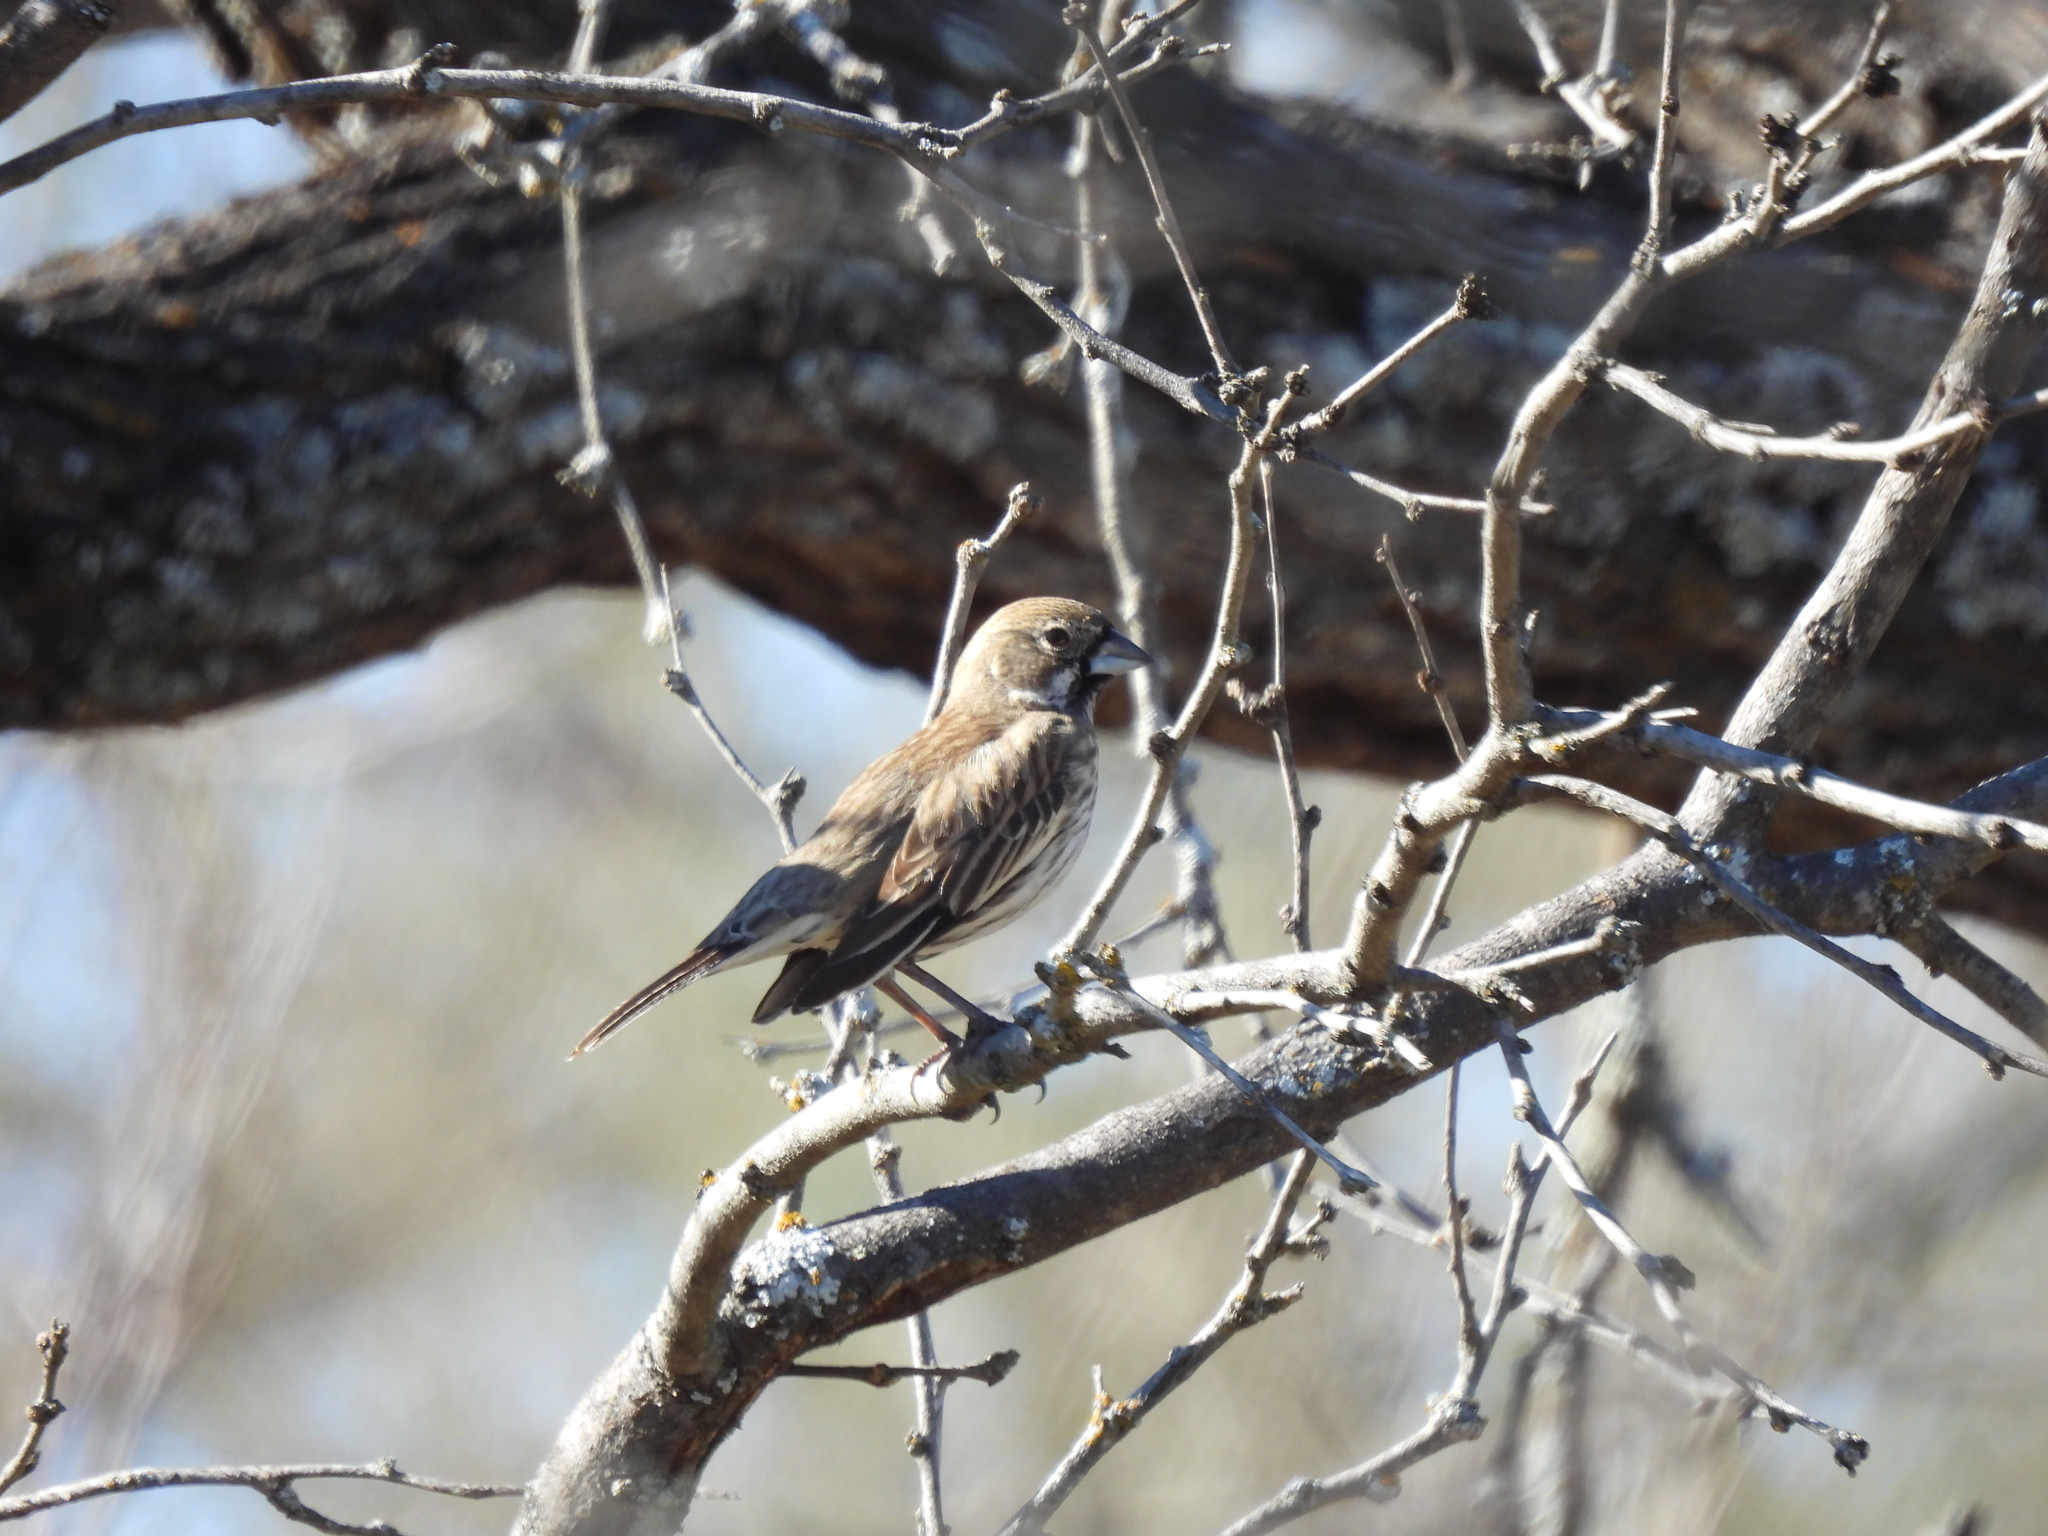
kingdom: Animalia
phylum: Chordata
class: Aves
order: Passeriformes
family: Passerellidae
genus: Calamospiza
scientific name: Calamospiza melanocorys
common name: Lark bunting
